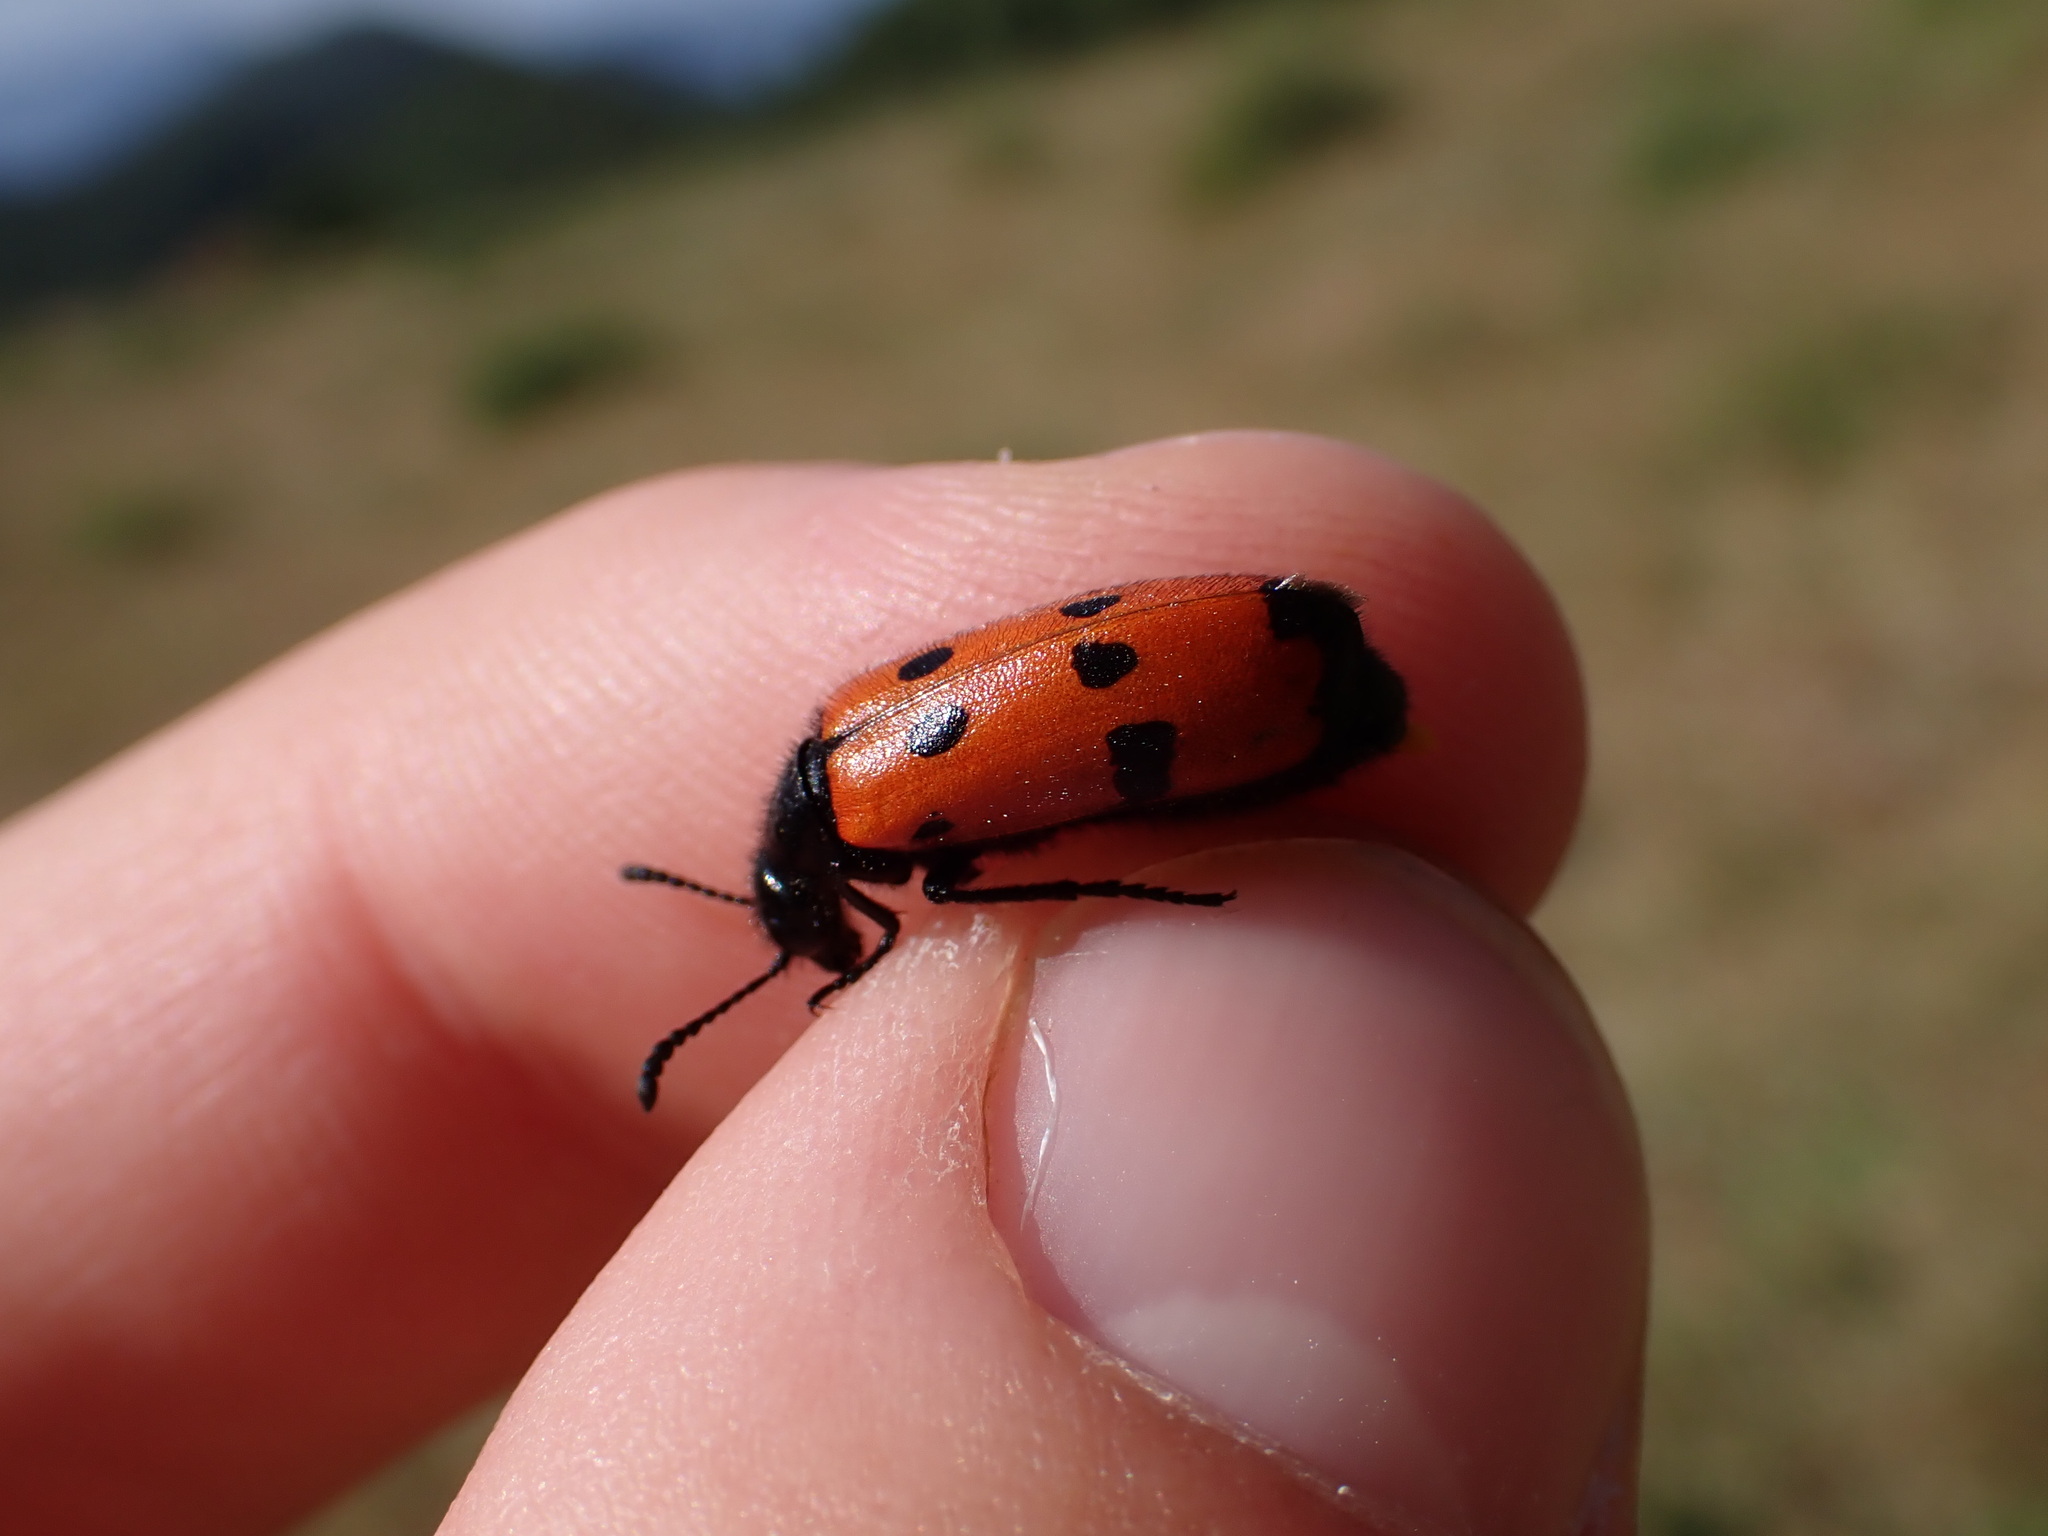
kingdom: Animalia
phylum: Arthropoda
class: Insecta
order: Coleoptera
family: Meloidae
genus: Mylabris
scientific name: Mylabris quadripunctata
